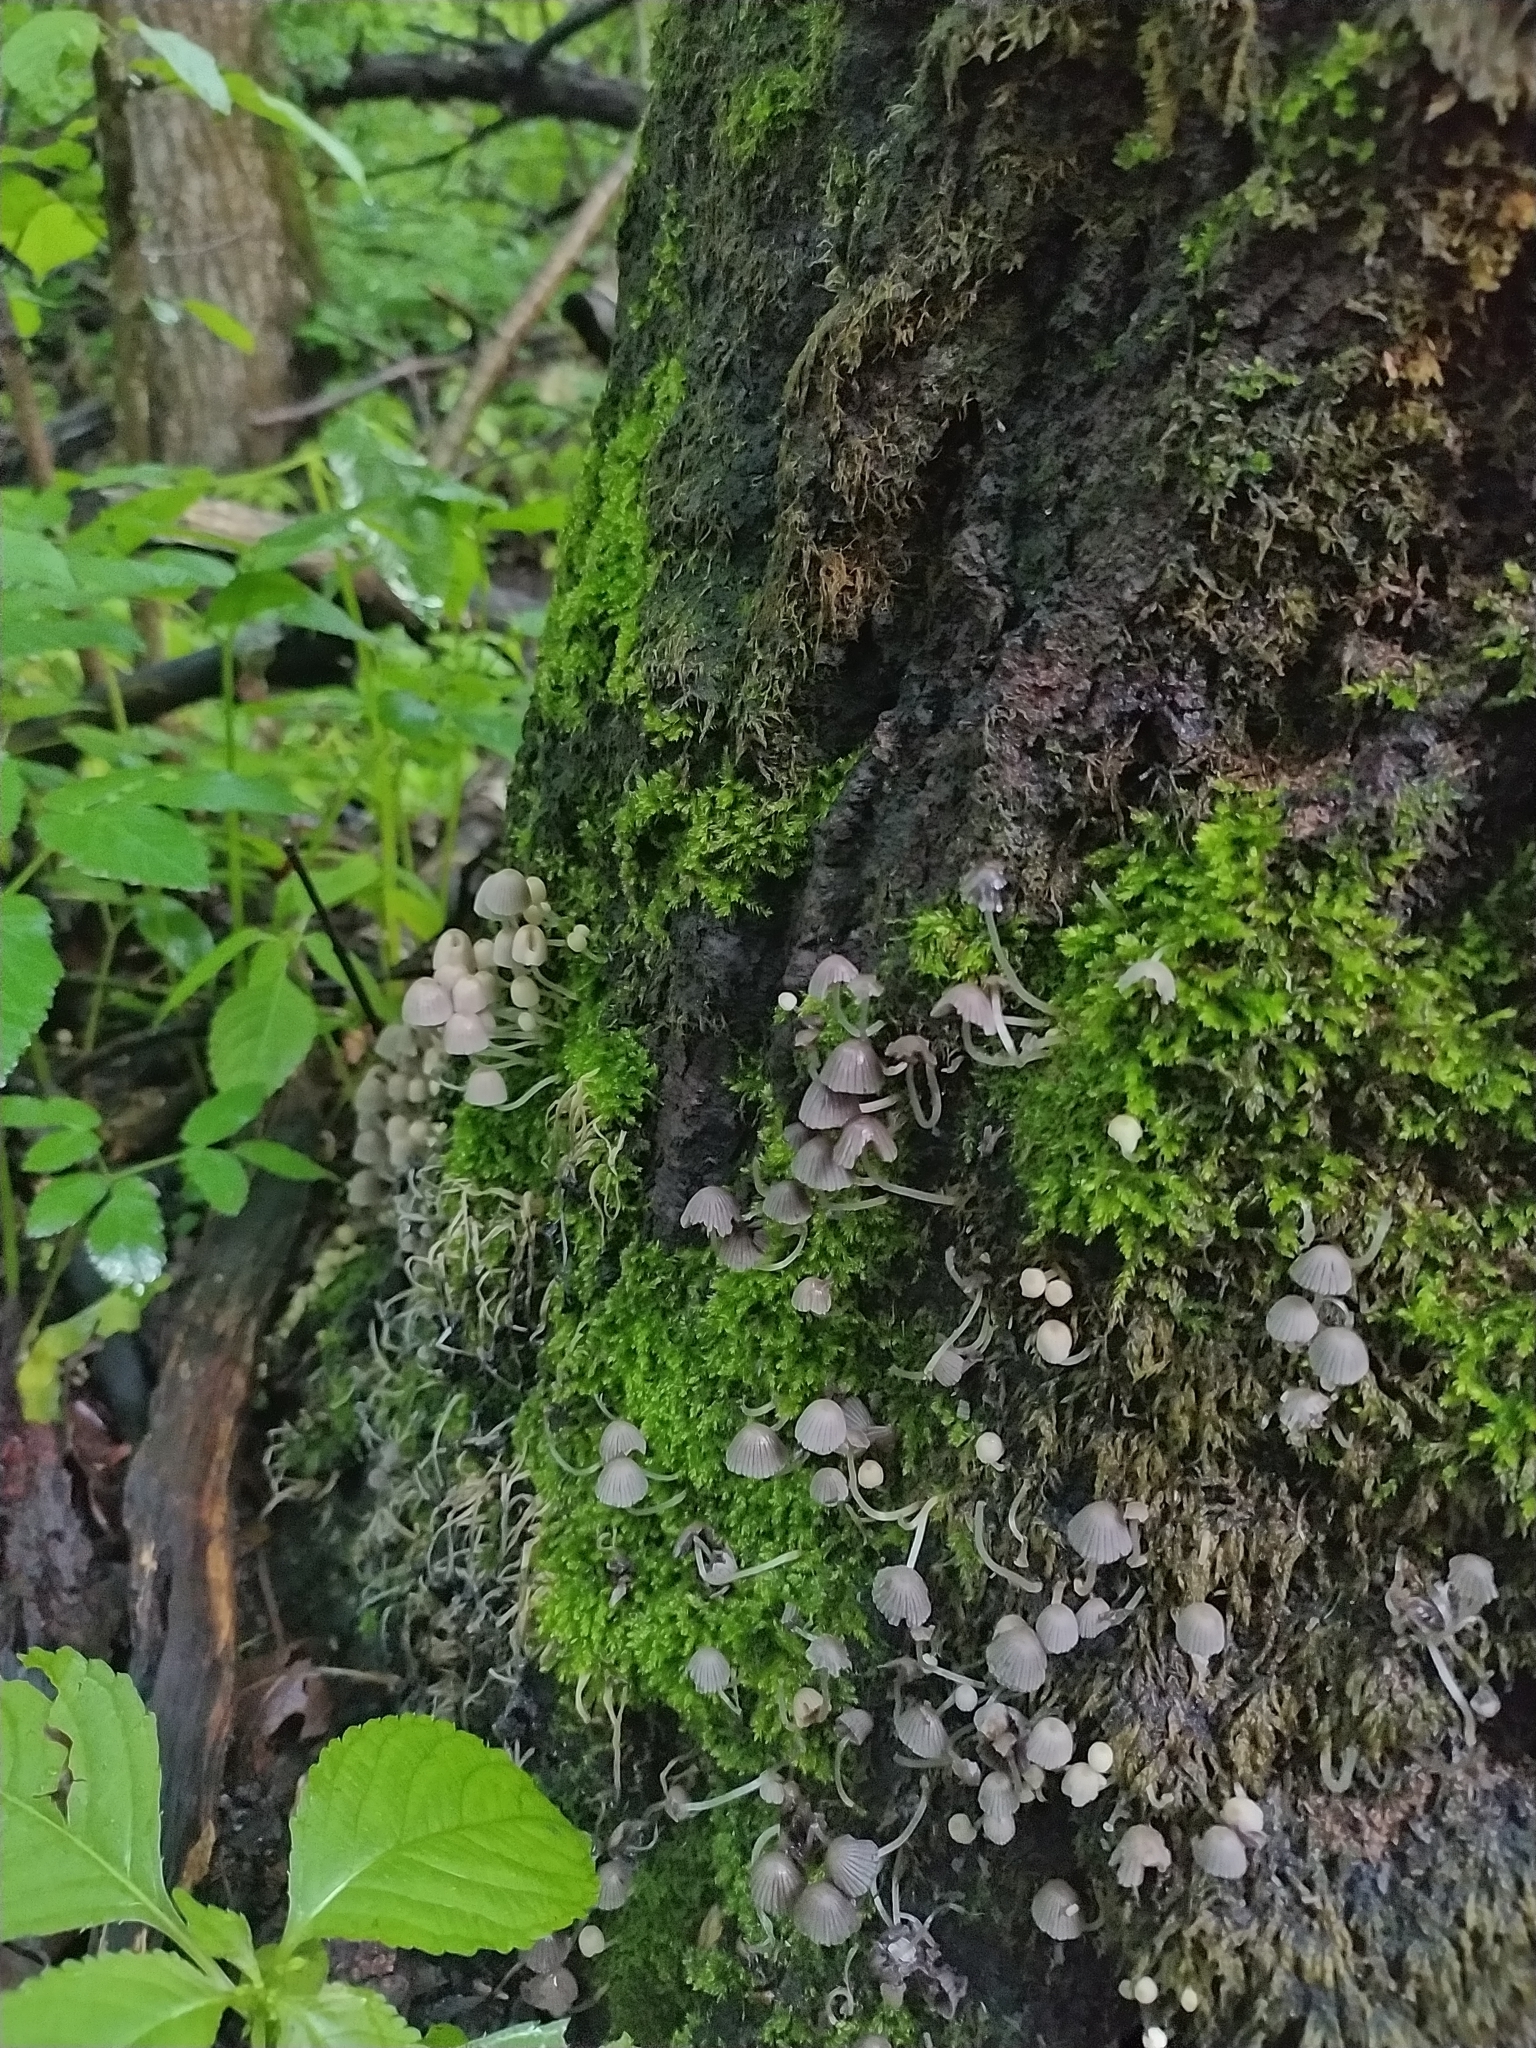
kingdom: Fungi
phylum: Basidiomycota
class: Agaricomycetes
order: Agaricales
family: Psathyrellaceae
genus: Coprinellus
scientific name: Coprinellus disseminatus
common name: Fairies' bonnets
